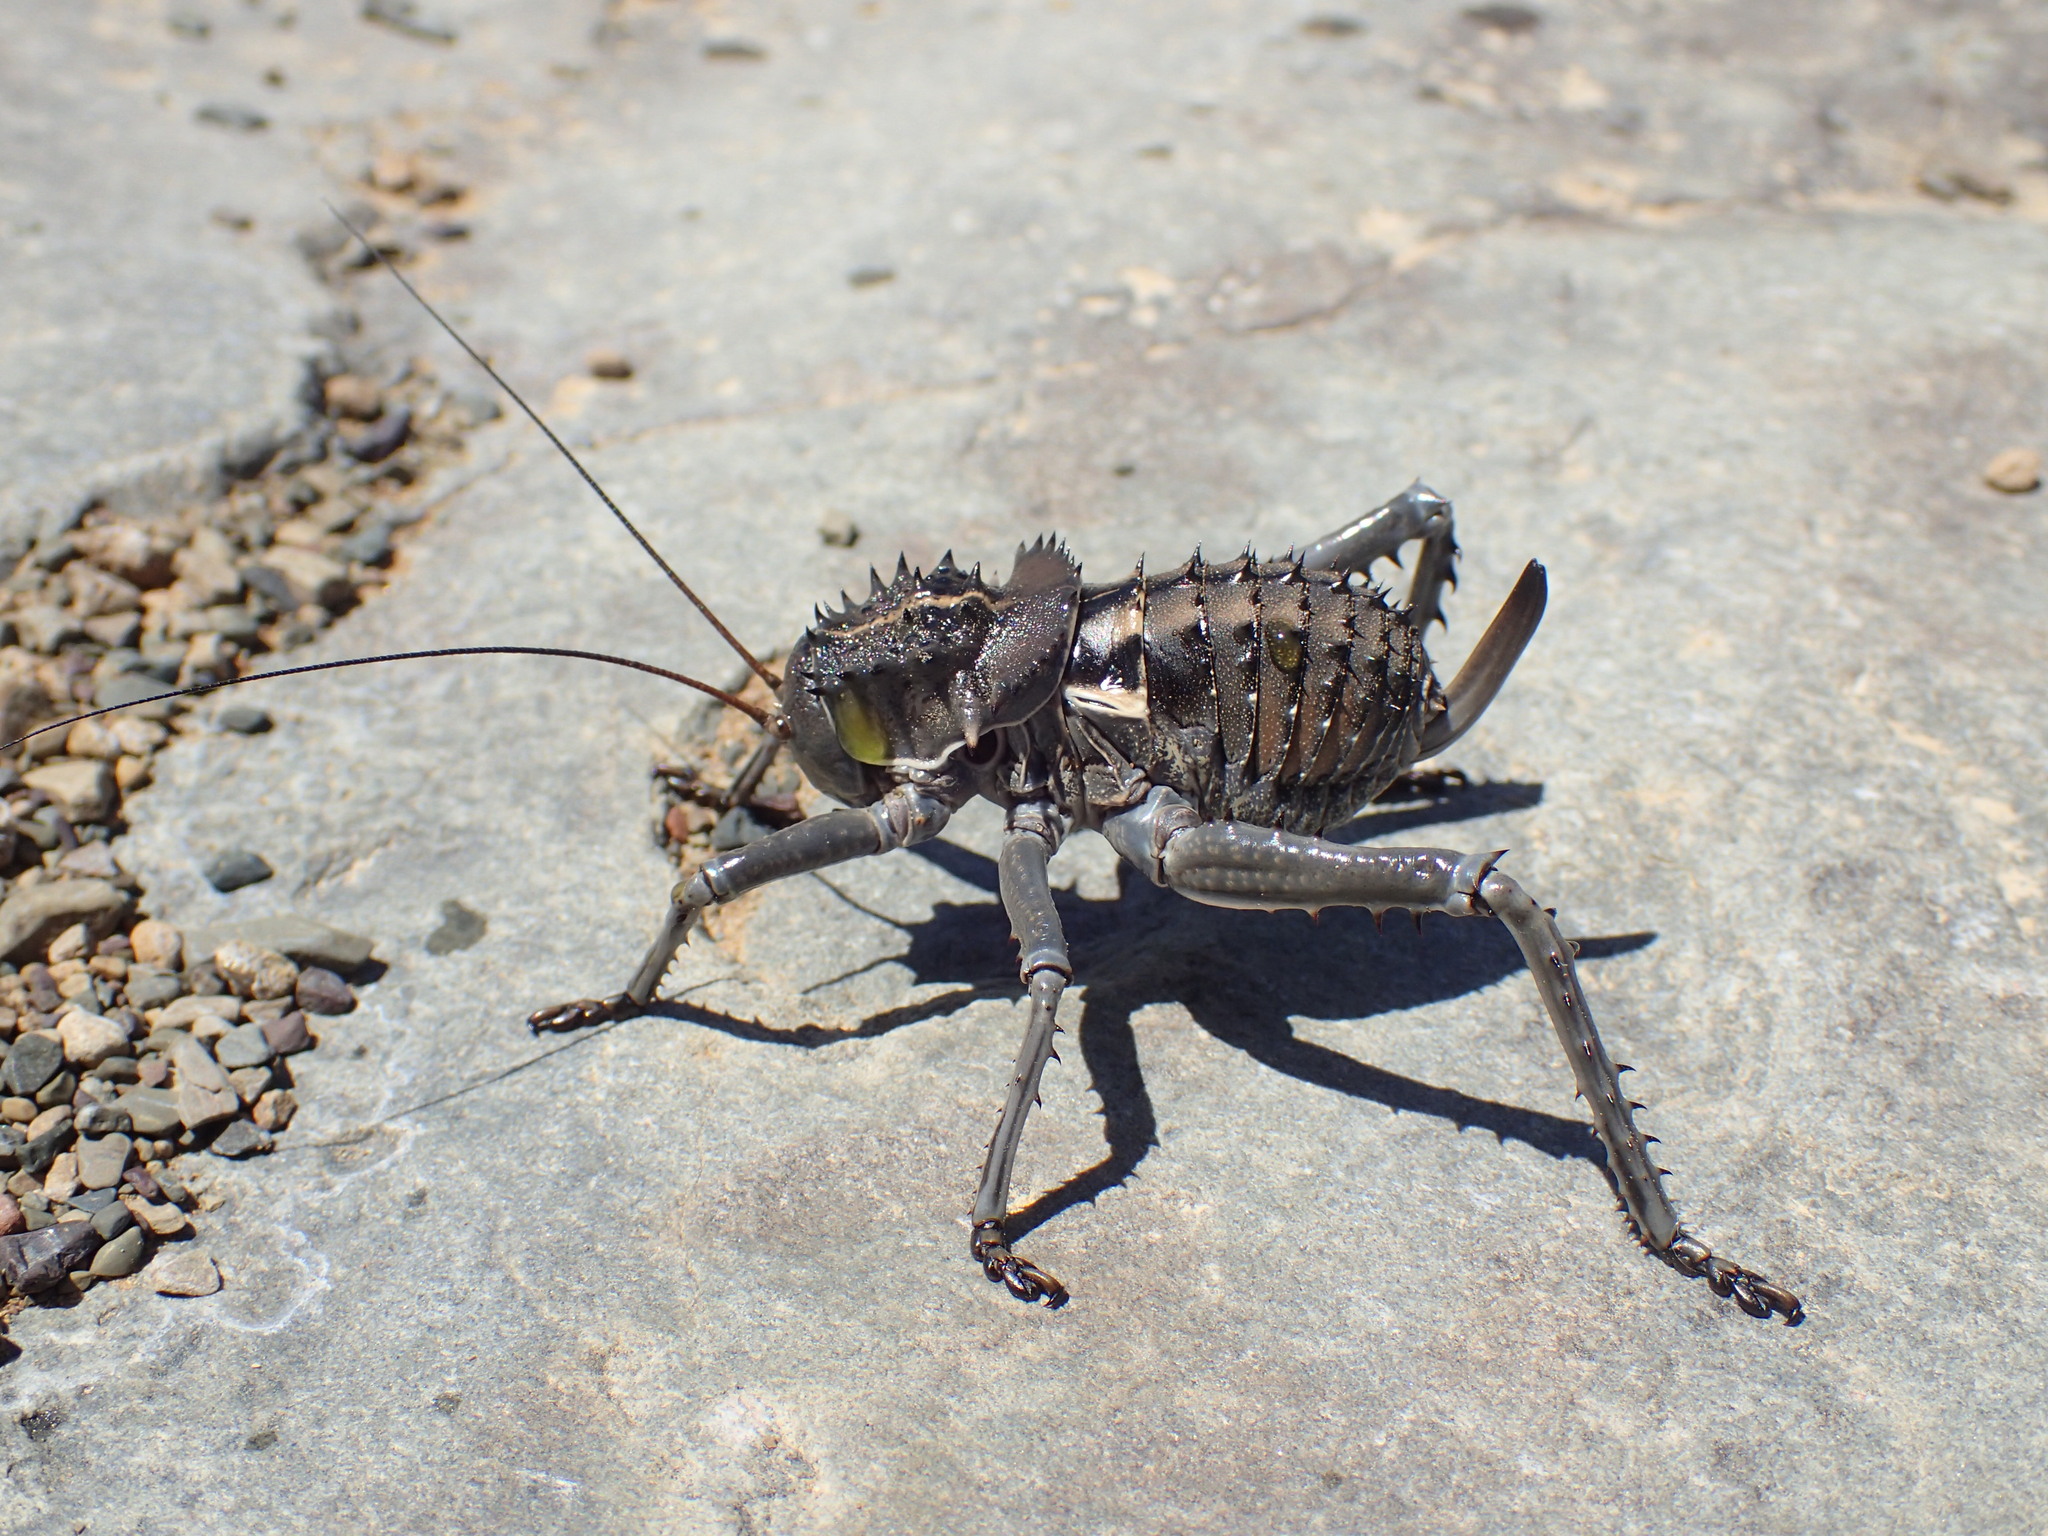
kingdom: Animalia
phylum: Arthropoda
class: Insecta
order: Orthoptera
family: Tettigoniidae
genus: Hetrodes
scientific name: Hetrodes pupus
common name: Koringkriek
